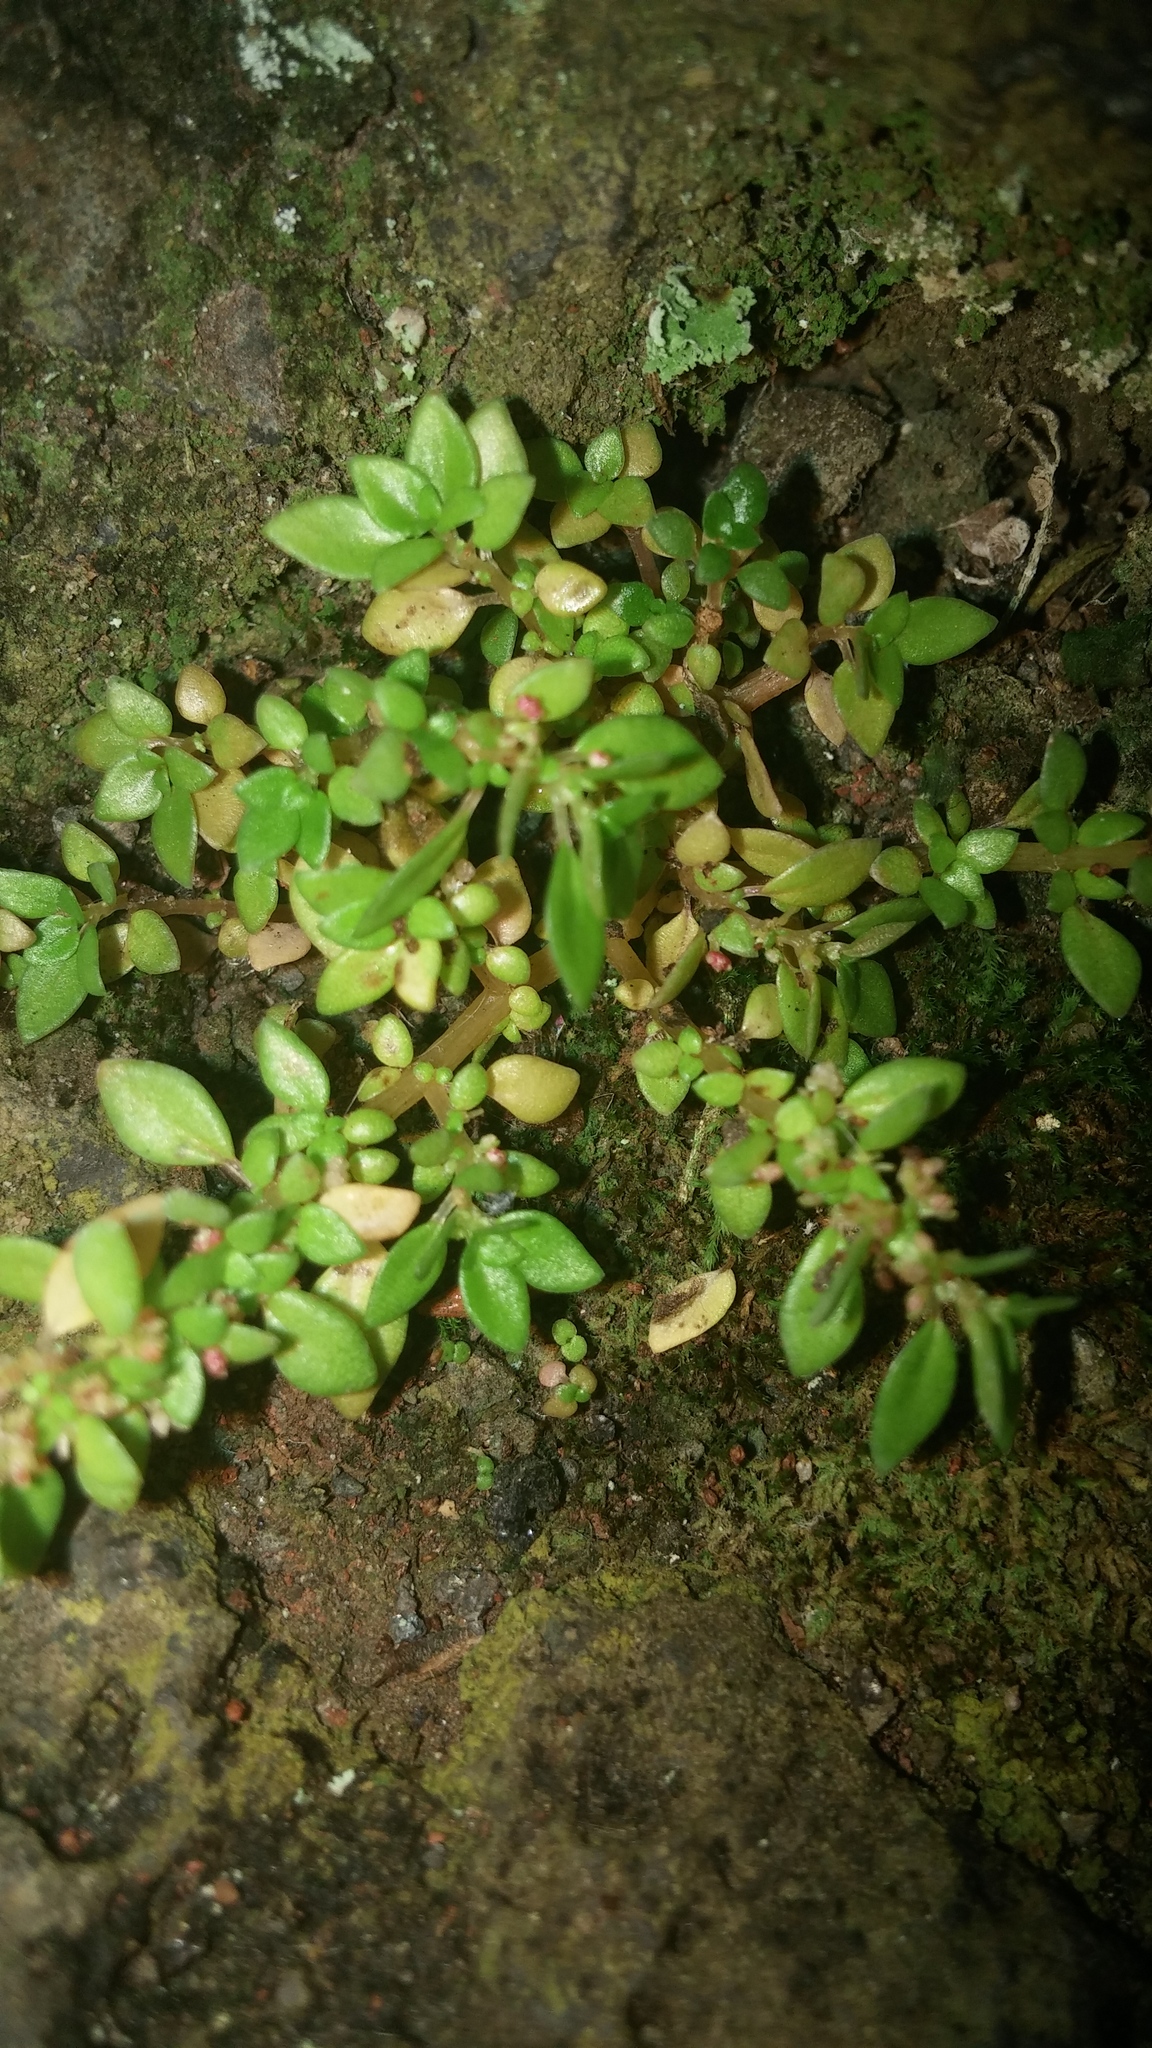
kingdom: Plantae
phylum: Tracheophyta
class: Magnoliopsida
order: Rosales
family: Urticaceae
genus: Pilea
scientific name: Pilea microphylla
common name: Artillery-plant
